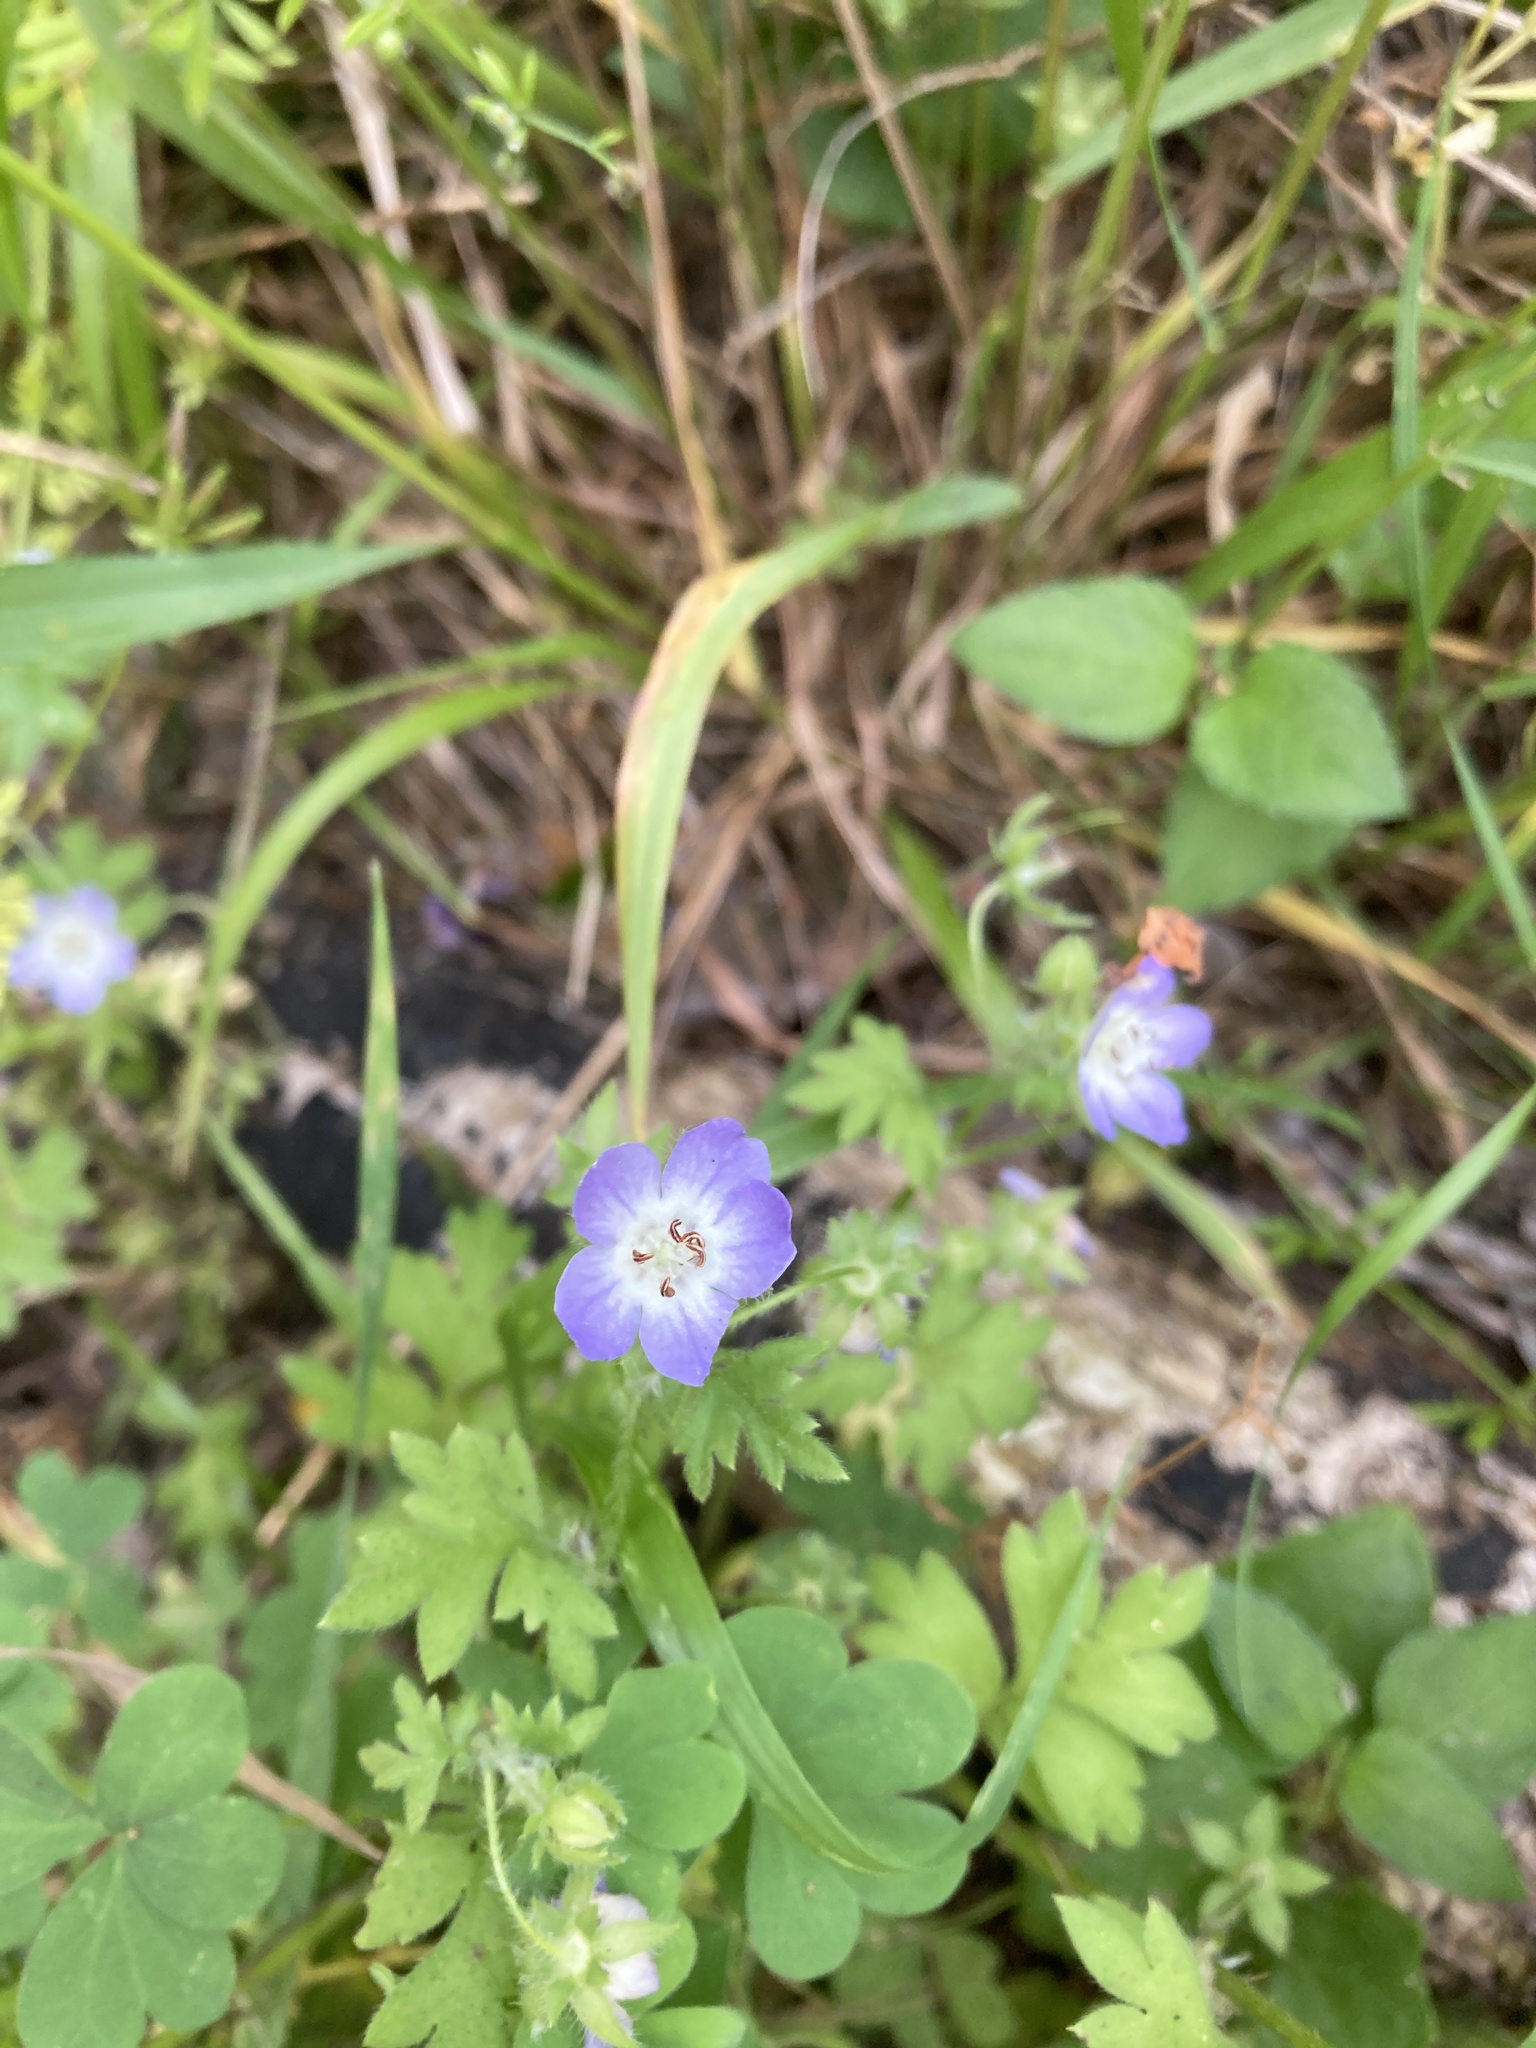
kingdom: Plantae
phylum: Tracheophyta
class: Magnoliopsida
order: Boraginales
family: Hydrophyllaceae
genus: Nemophila
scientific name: Nemophila phacelioides
